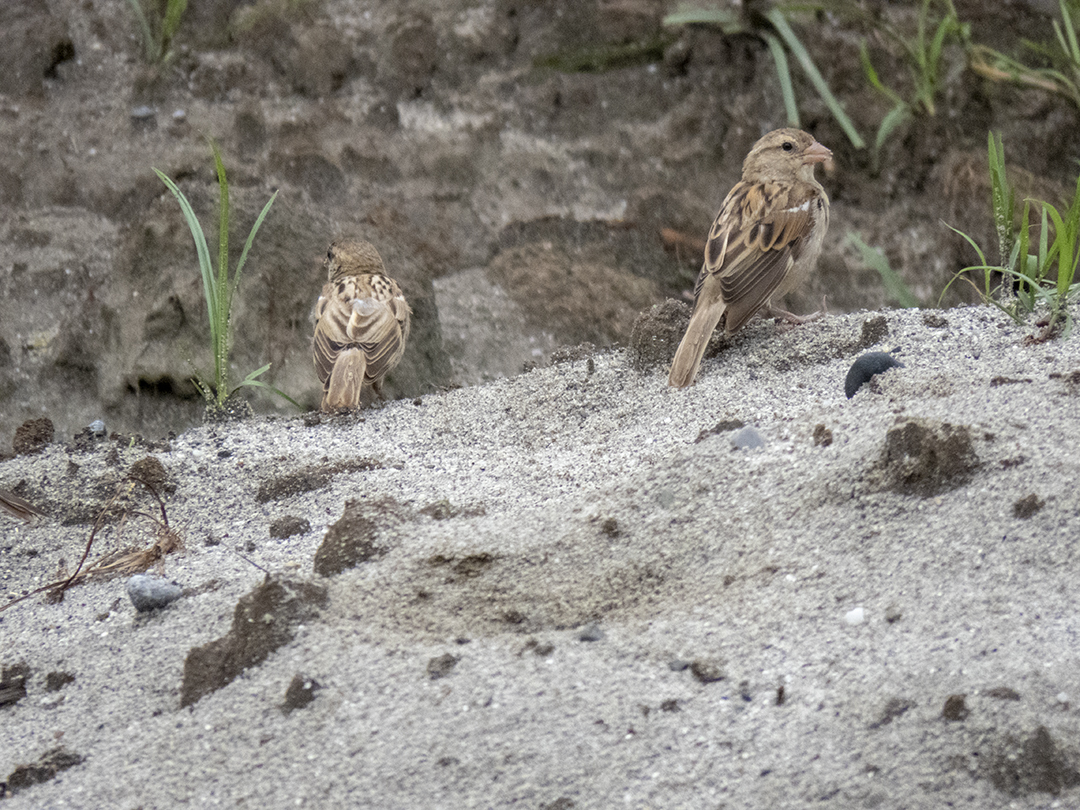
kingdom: Animalia
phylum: Chordata
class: Aves
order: Passeriformes
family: Passeridae
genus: Passer
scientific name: Passer domesticus
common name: House sparrow
